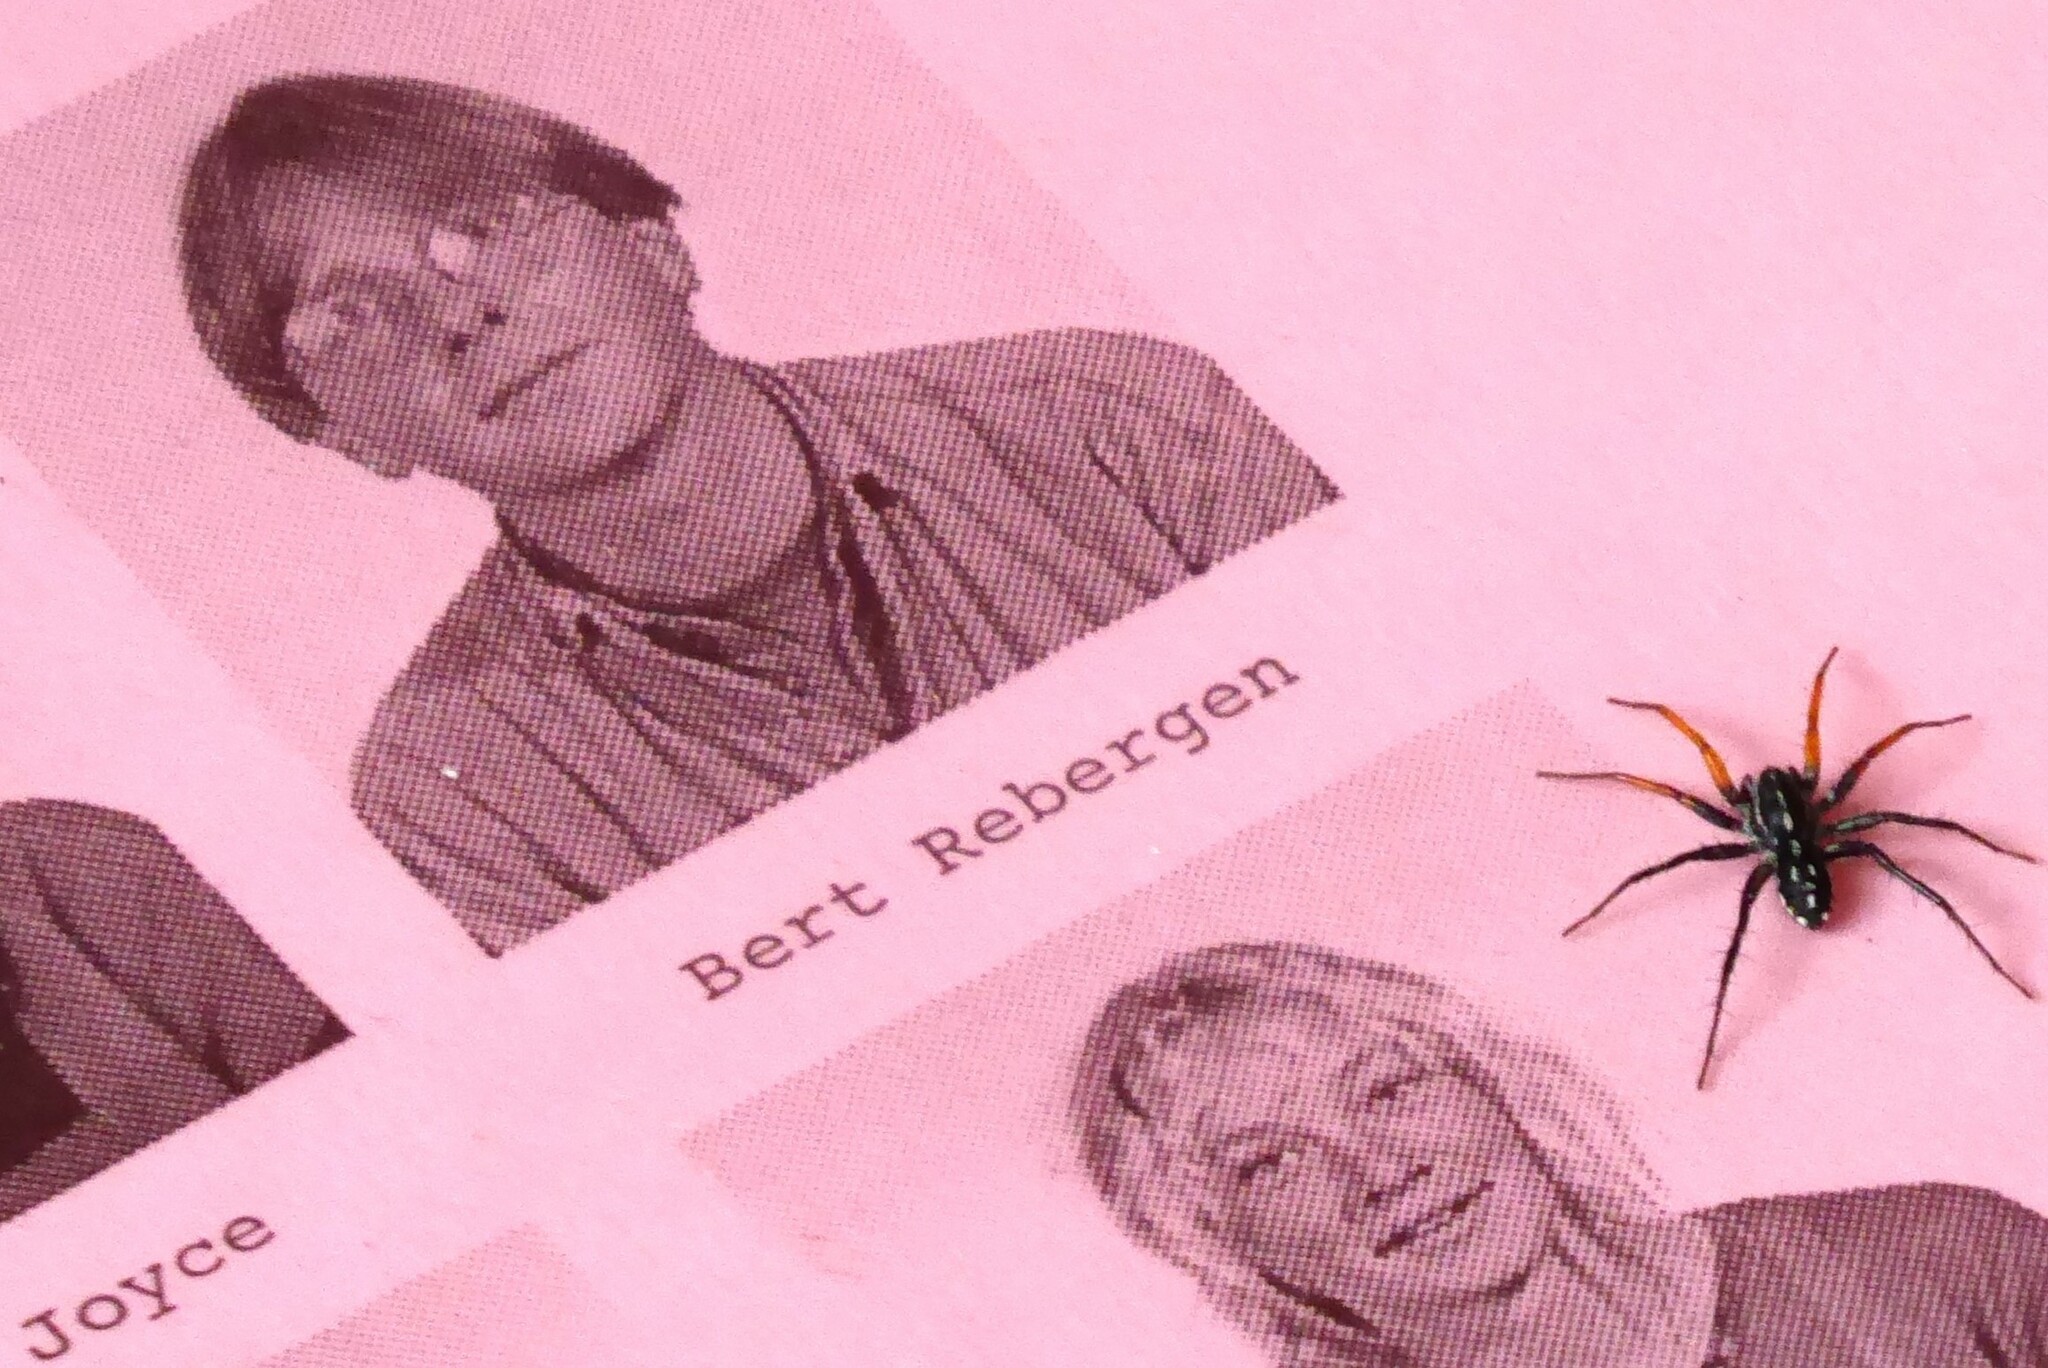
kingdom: Animalia
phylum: Arthropoda
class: Arachnida
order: Araneae
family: Corinnidae
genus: Nyssus
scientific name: Nyssus coloripes
